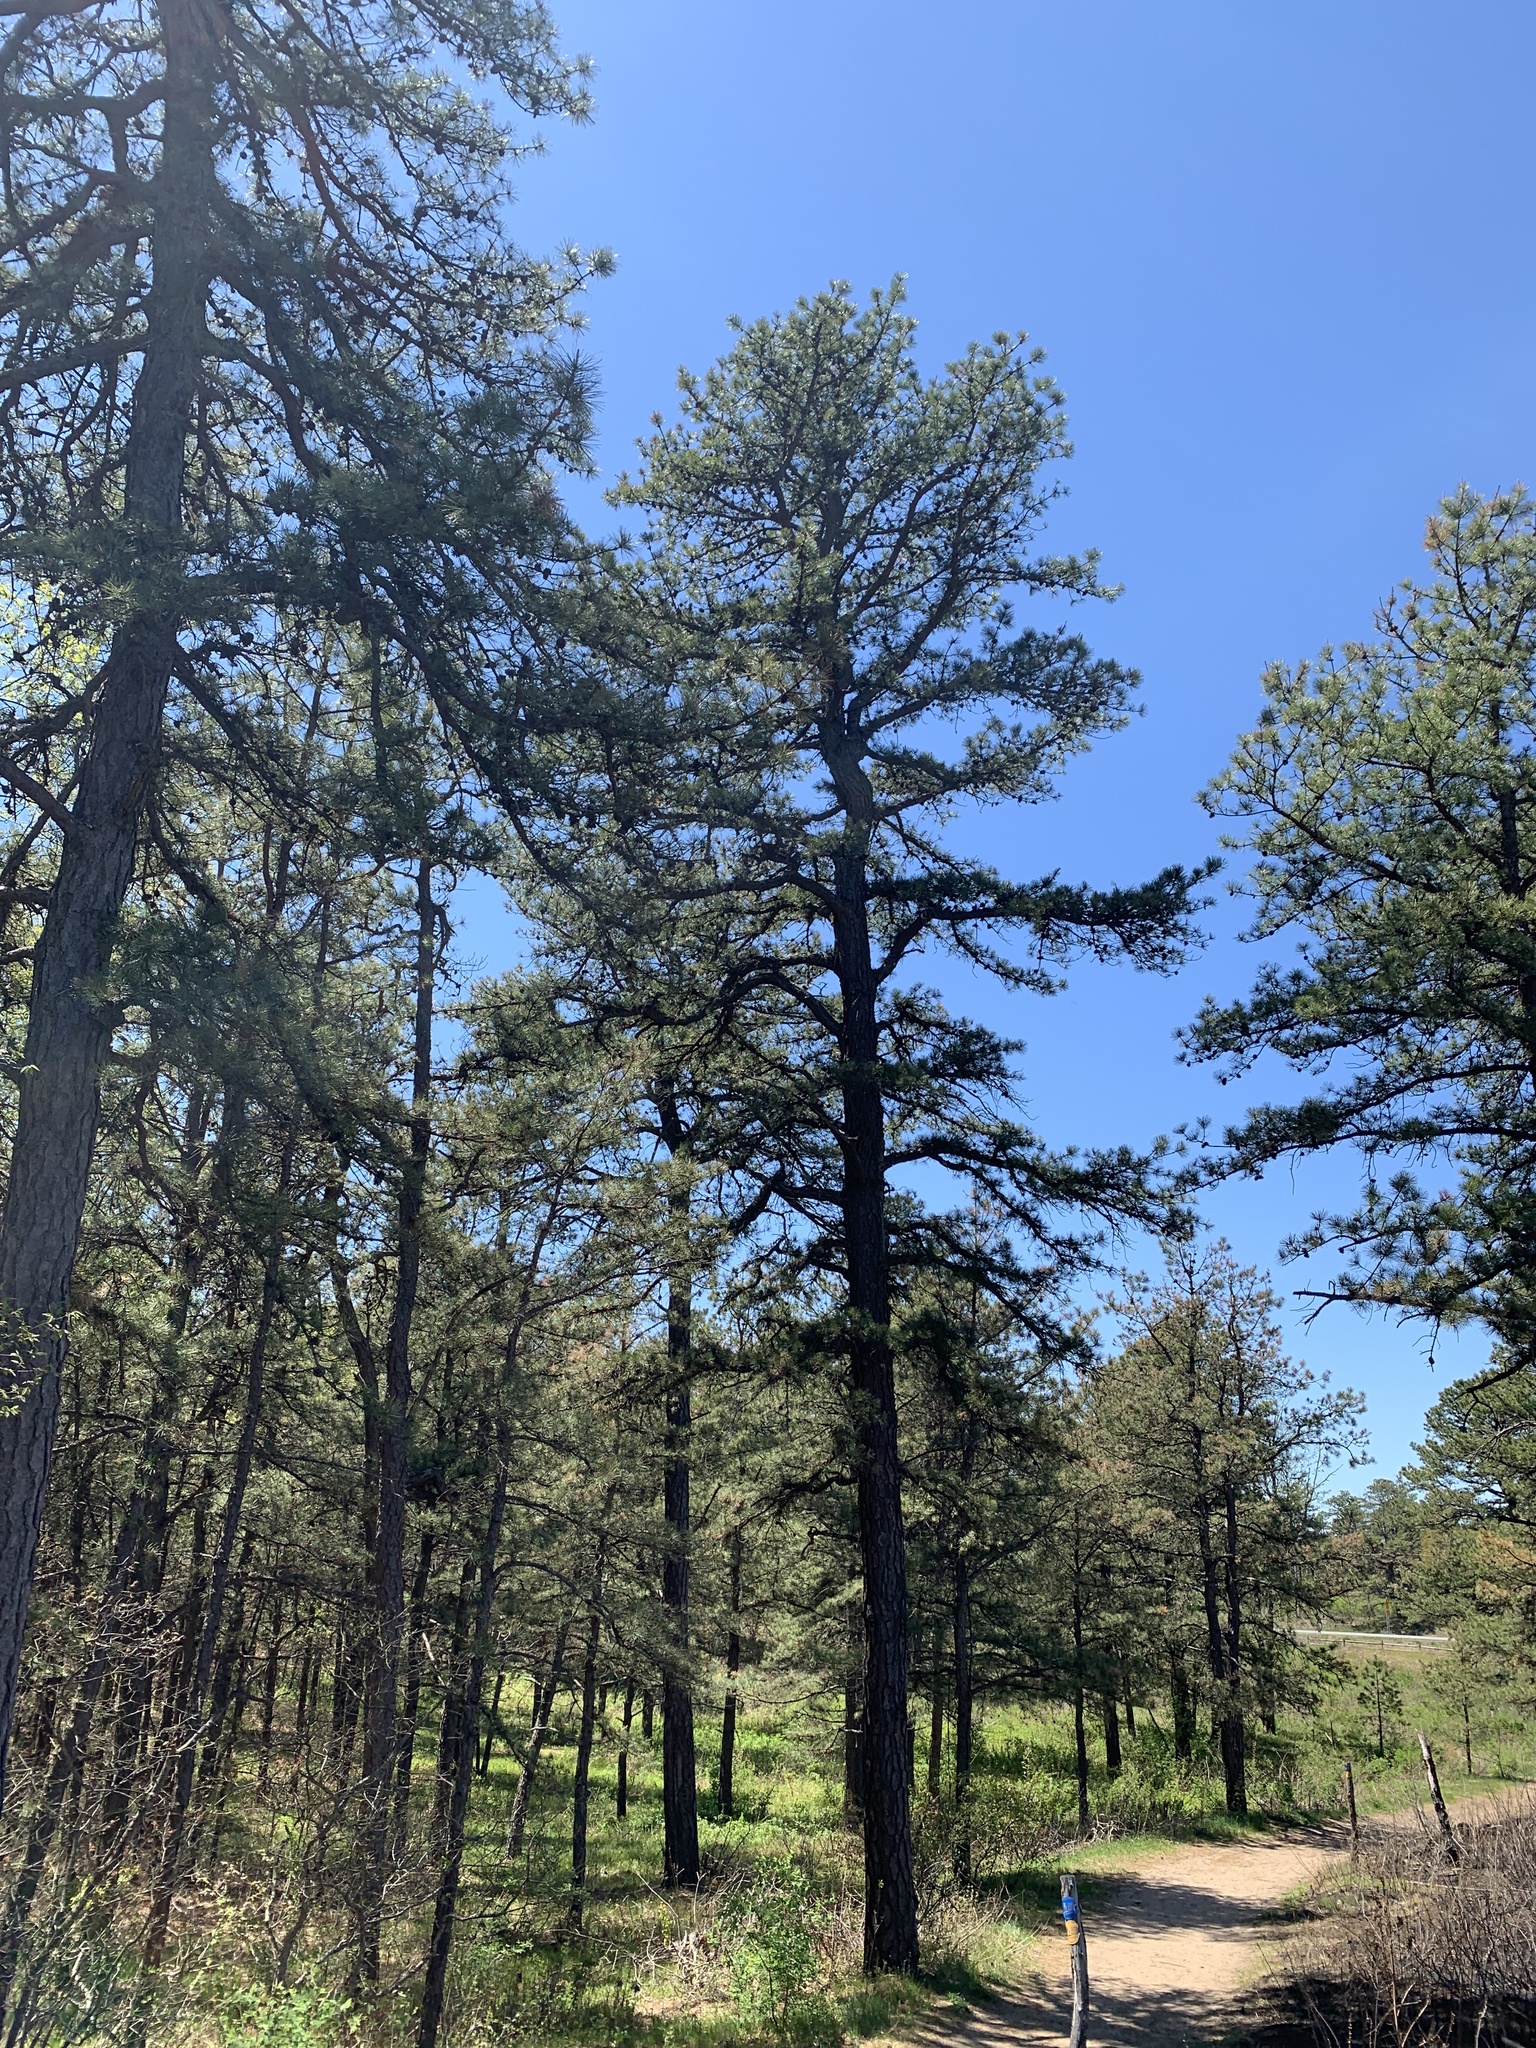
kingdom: Plantae
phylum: Tracheophyta
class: Pinopsida
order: Pinales
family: Pinaceae
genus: Pinus
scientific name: Pinus rigida
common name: Pitch pine
